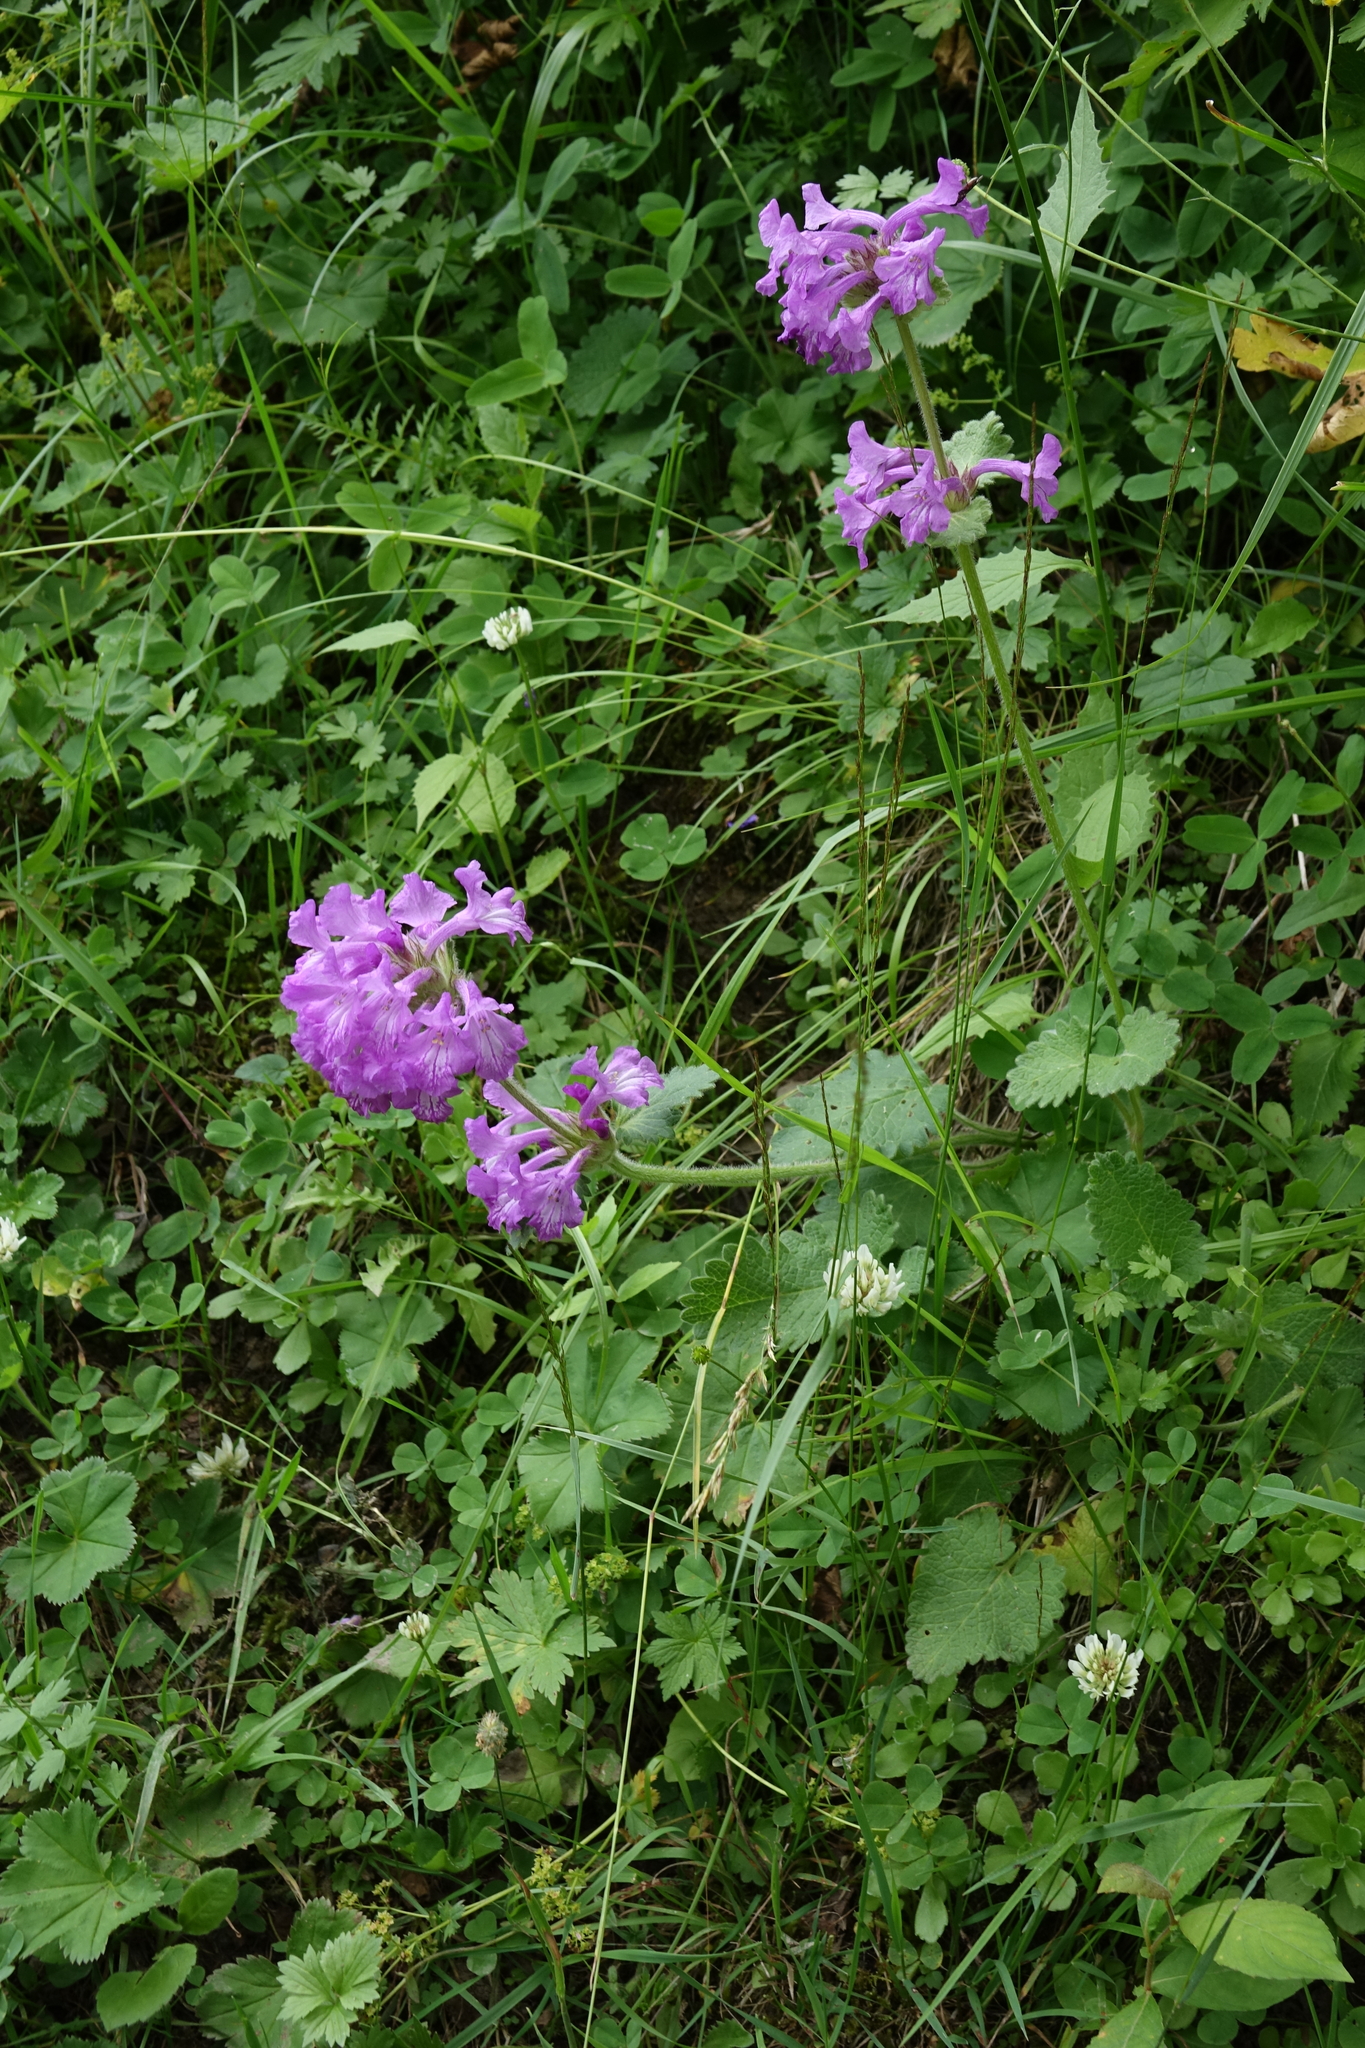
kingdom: Plantae
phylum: Tracheophyta
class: Magnoliopsida
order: Lamiales
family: Lamiaceae
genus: Betonica
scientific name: Betonica macrantha
